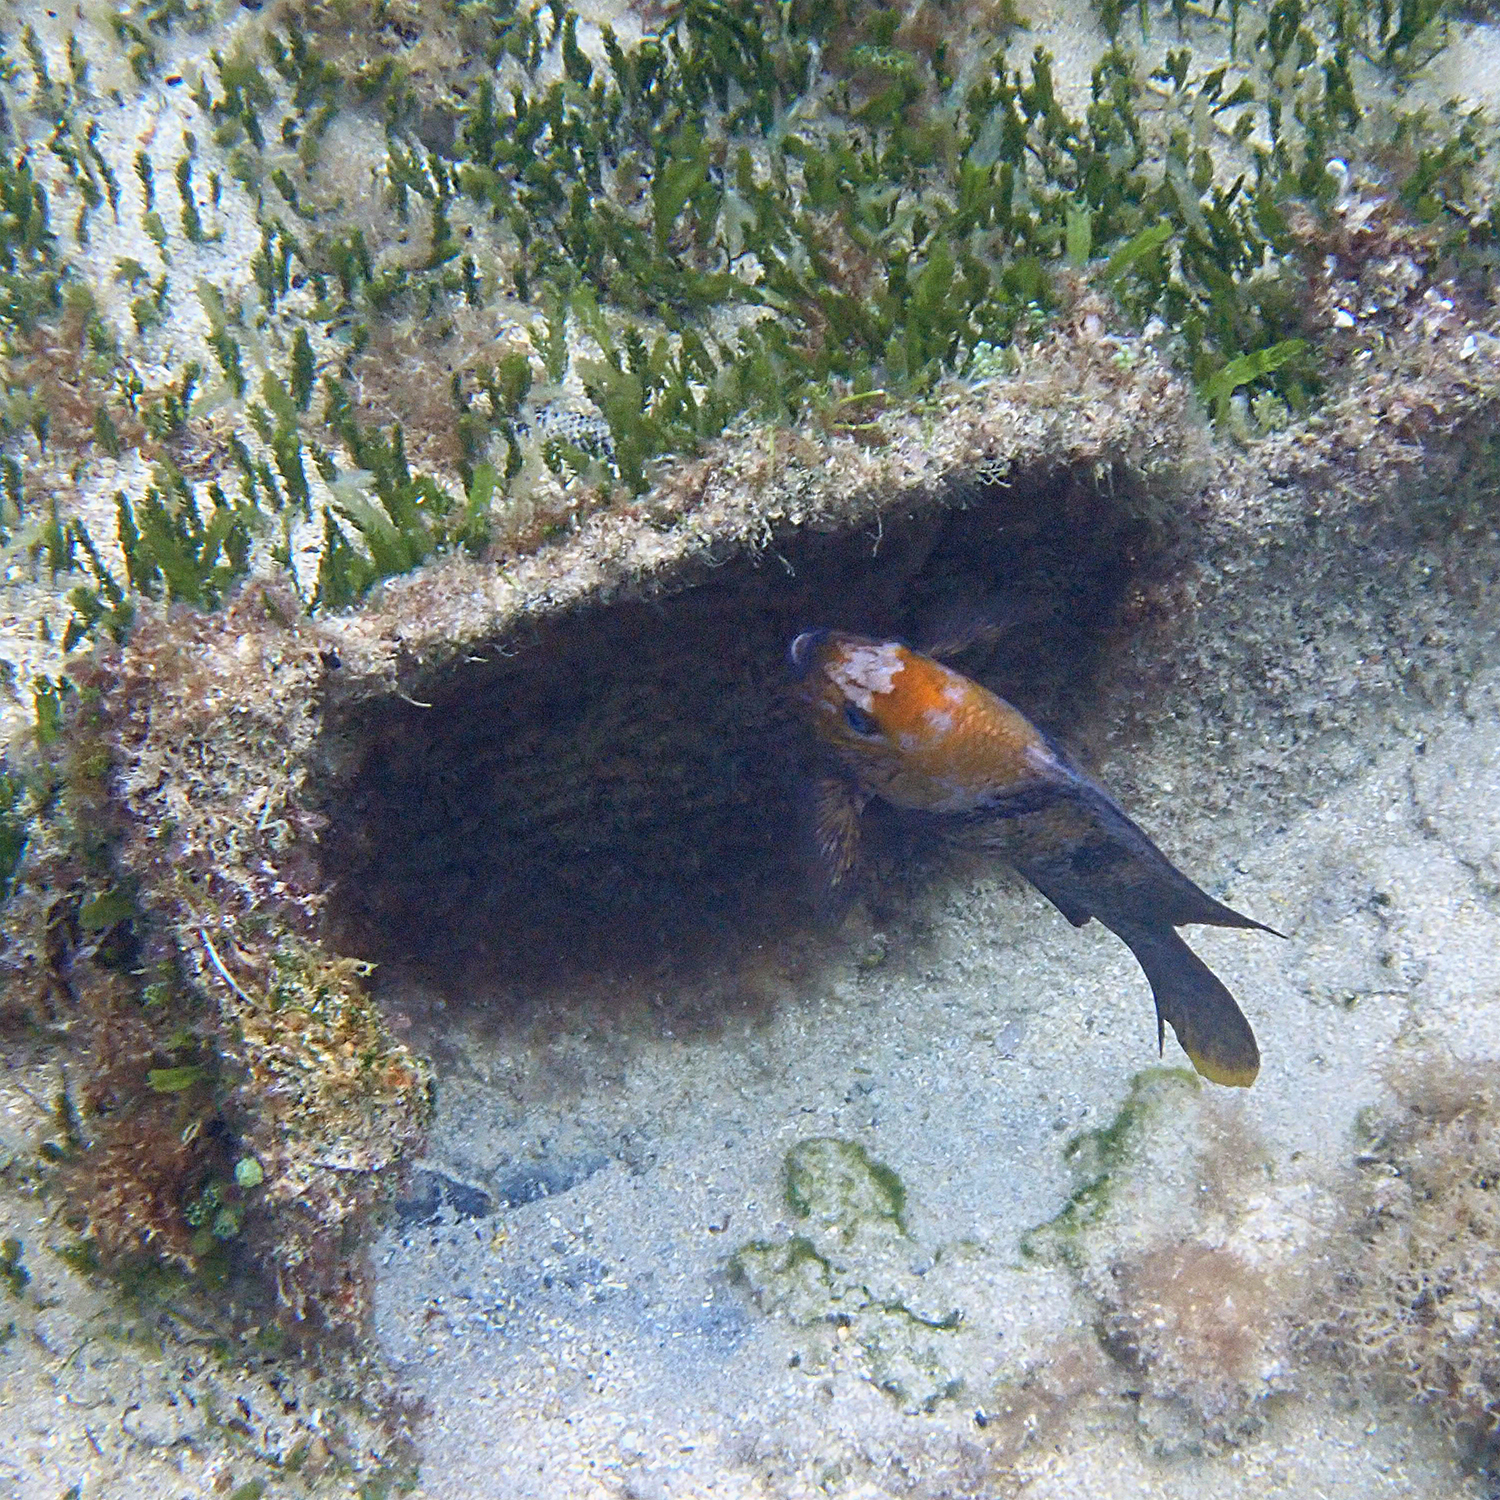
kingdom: Animalia
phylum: Chordata
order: Perciformes
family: Pomacentridae
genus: Parma
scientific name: Parma polylepis
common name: Banded parma
